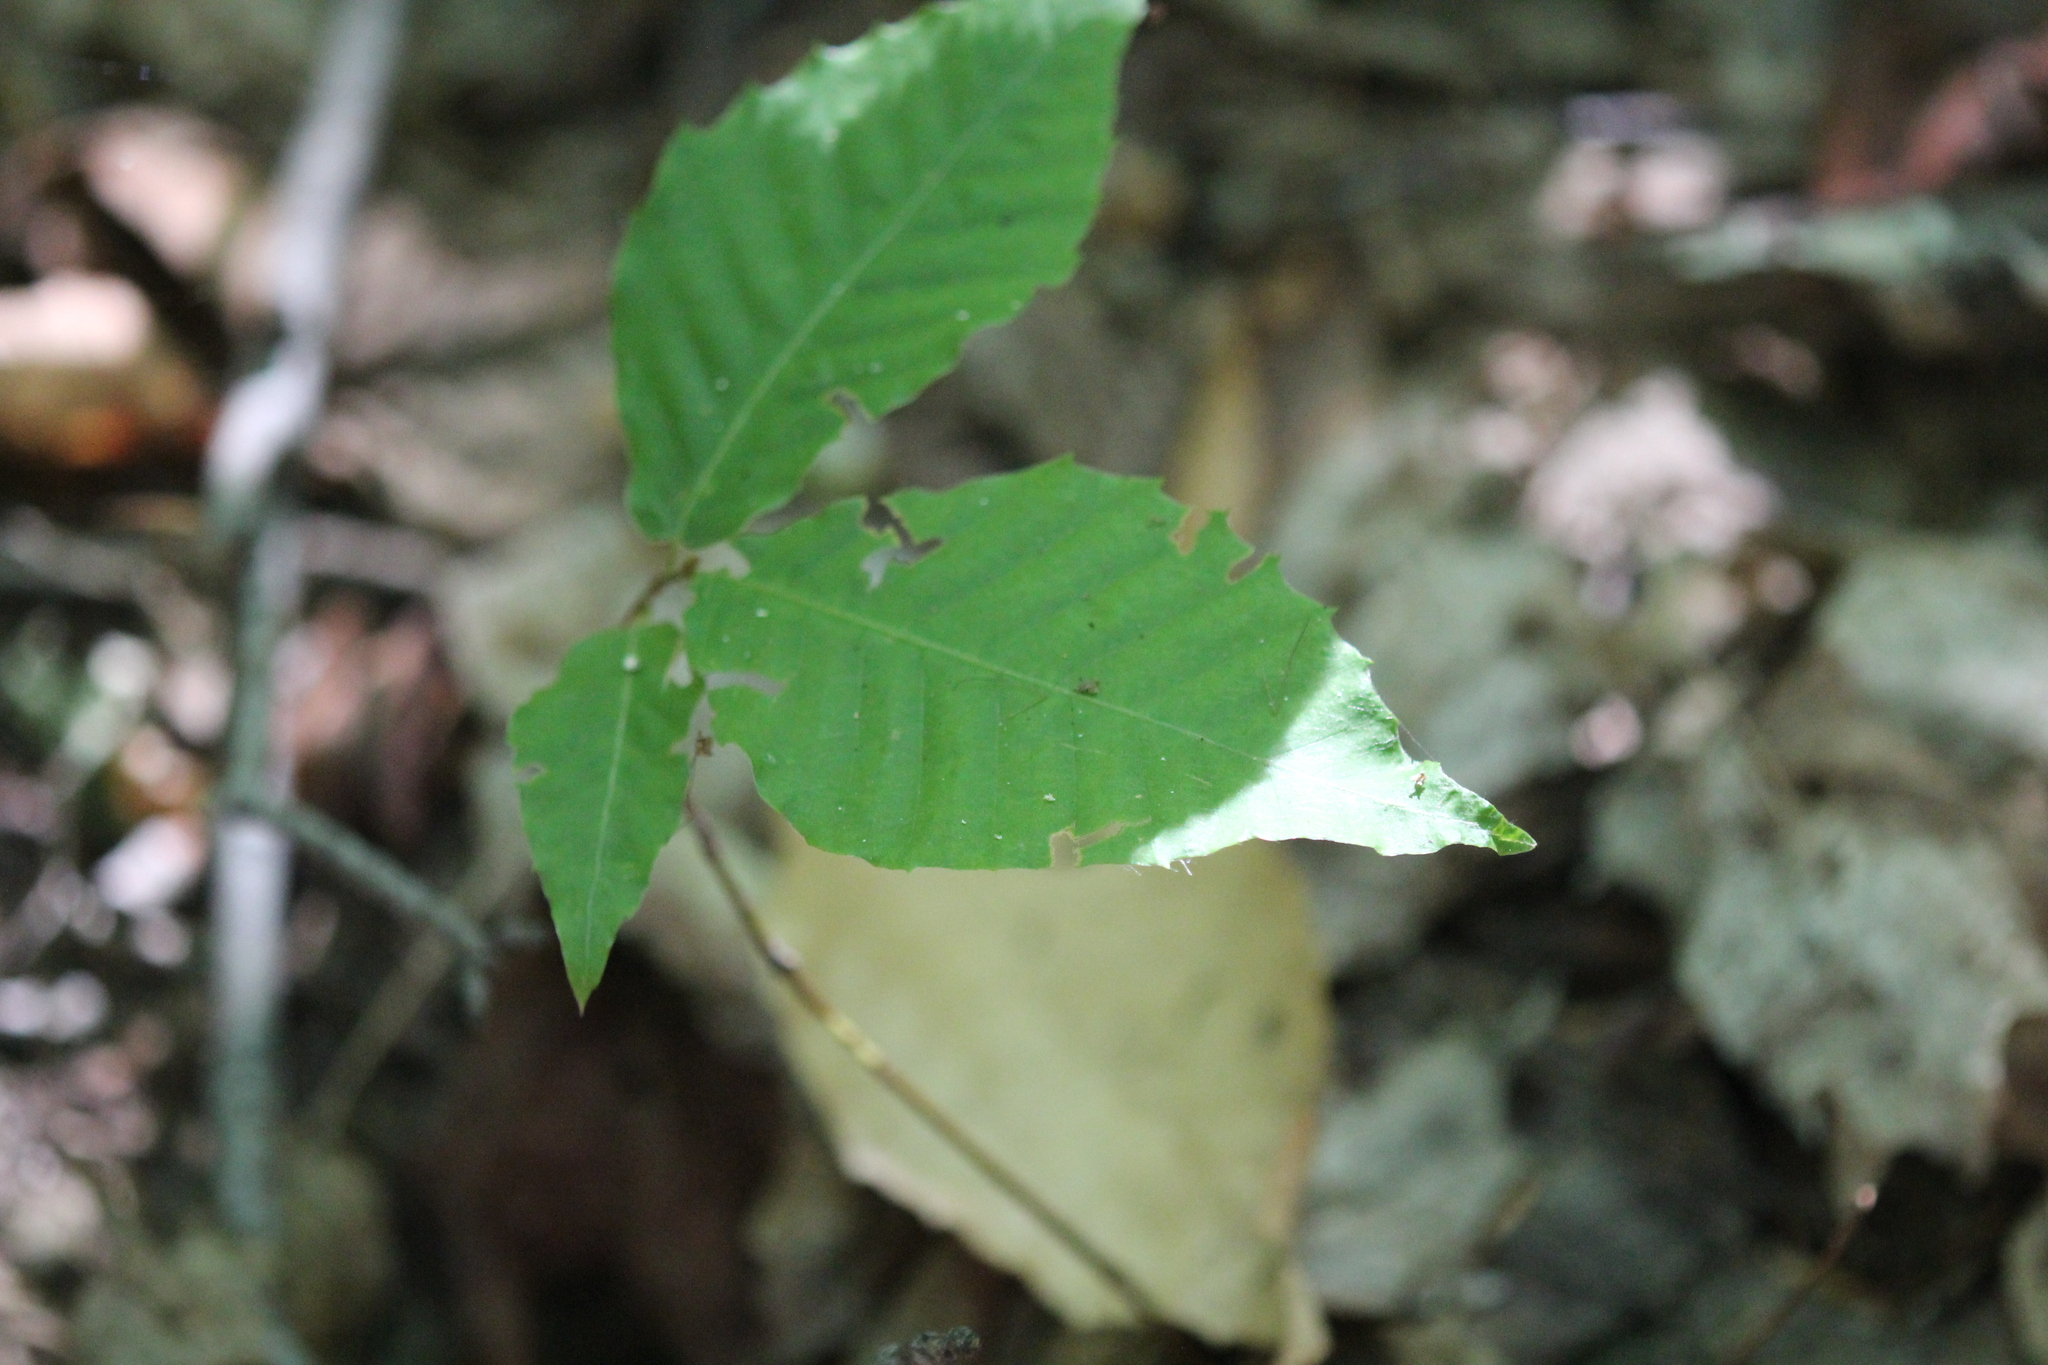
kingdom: Plantae
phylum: Tracheophyta
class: Magnoliopsida
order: Fagales
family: Fagaceae
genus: Fagus
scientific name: Fagus grandifolia
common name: American beech
